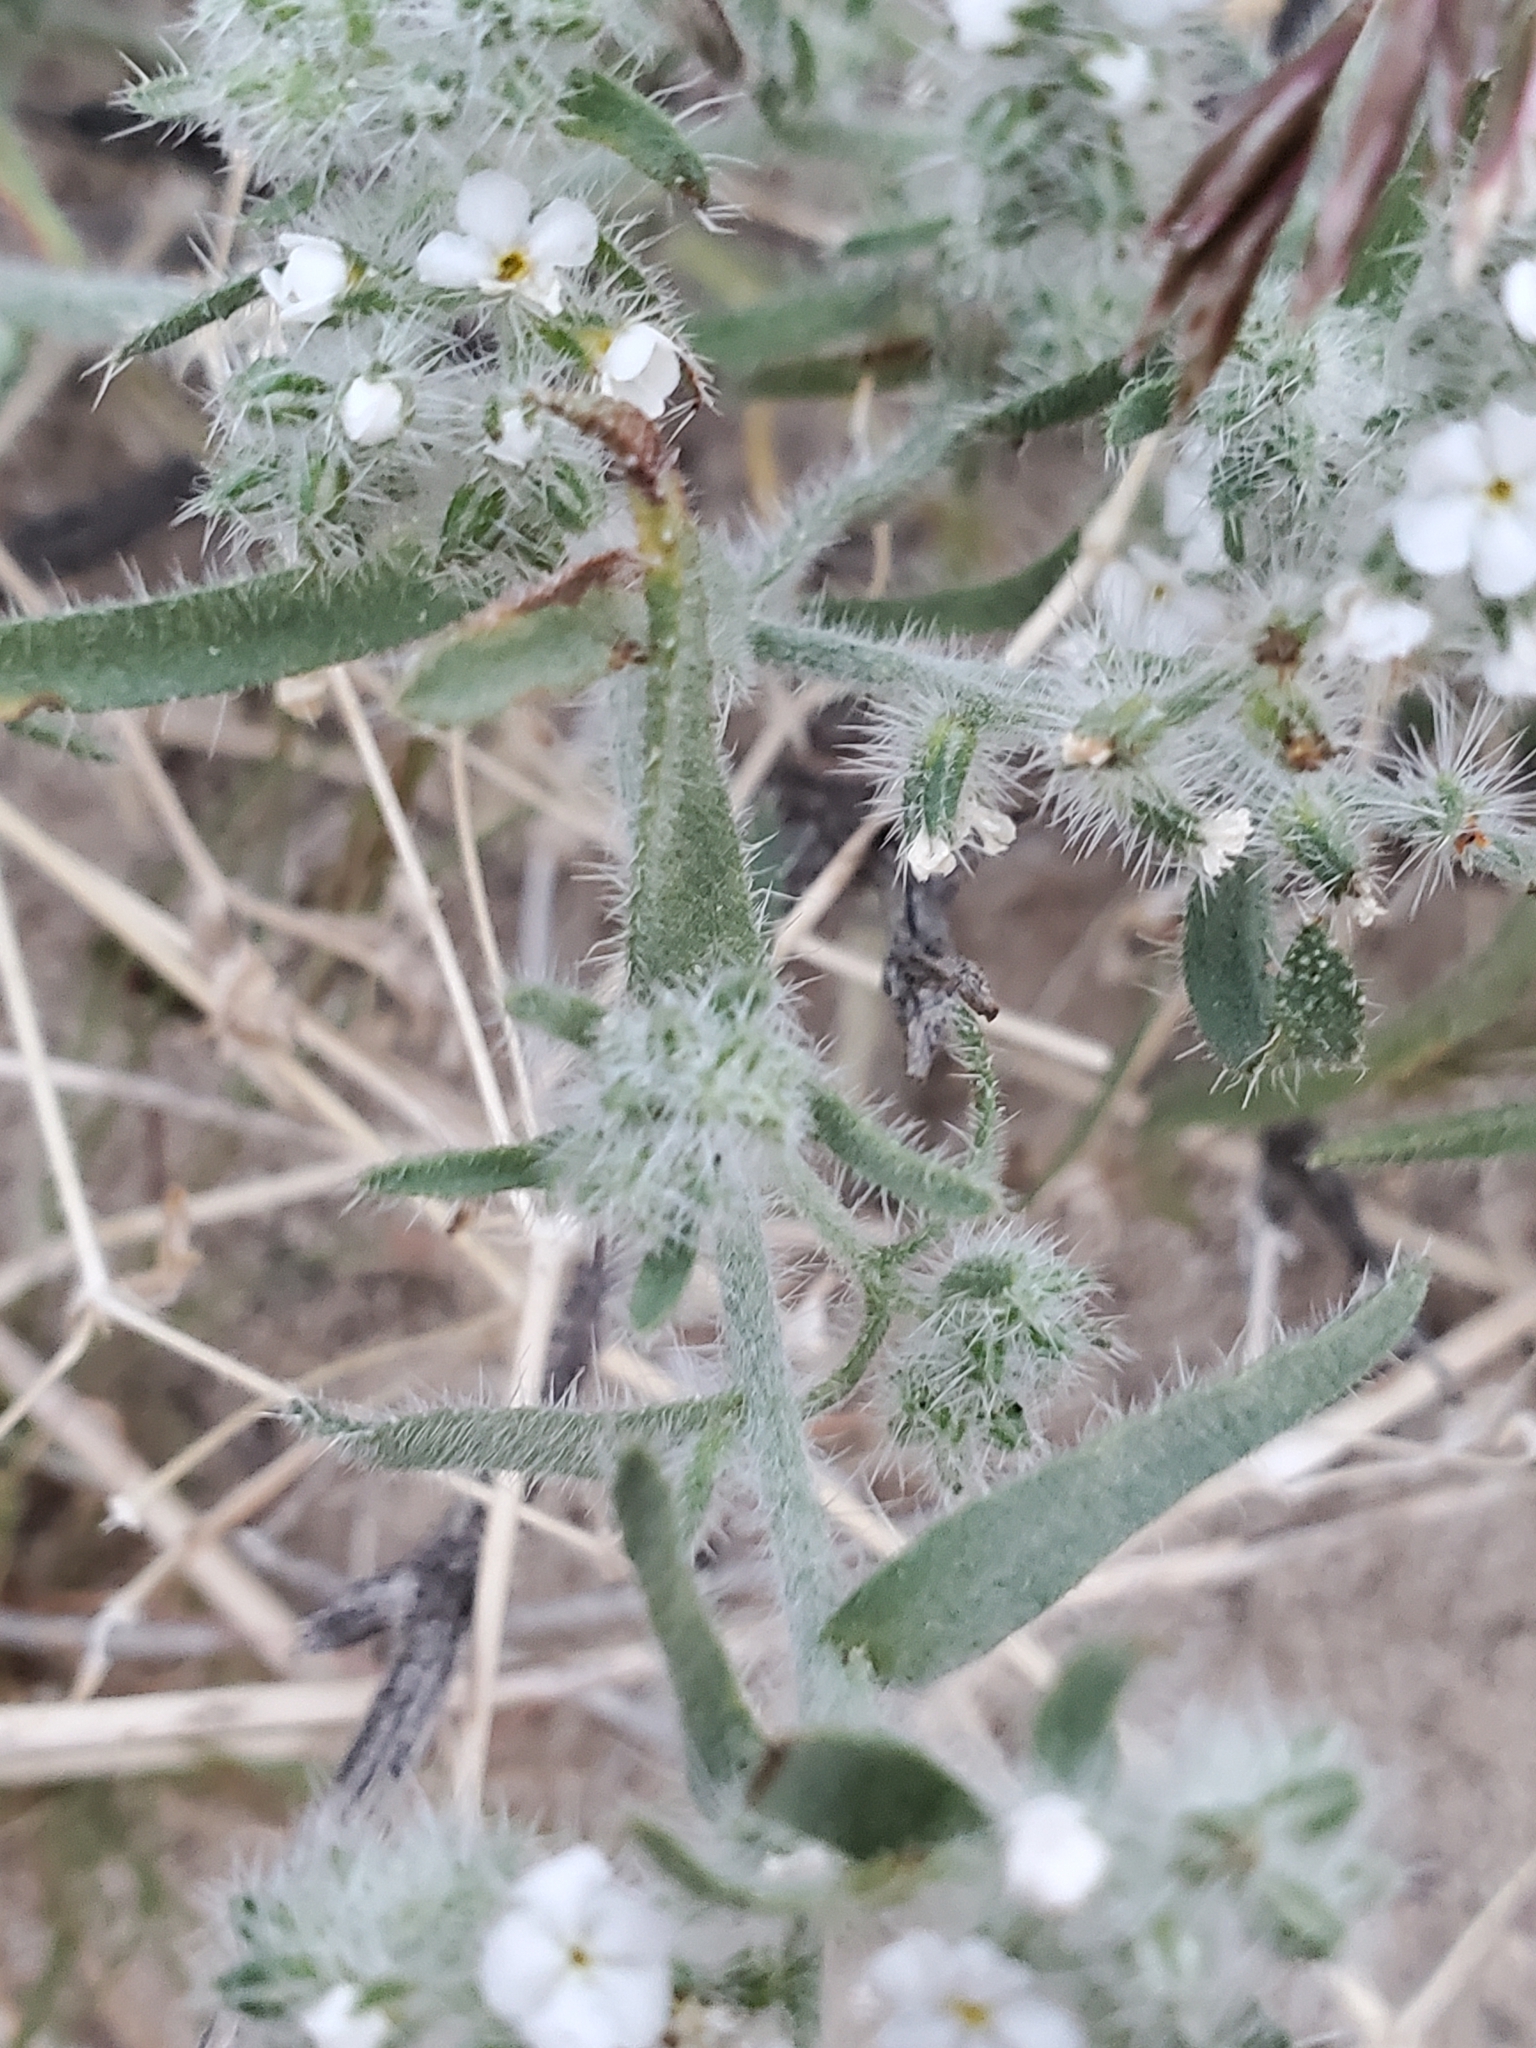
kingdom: Plantae
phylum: Tracheophyta
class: Magnoliopsida
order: Boraginales
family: Boraginaceae
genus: Johnstonella
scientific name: Johnstonella angustifolia
